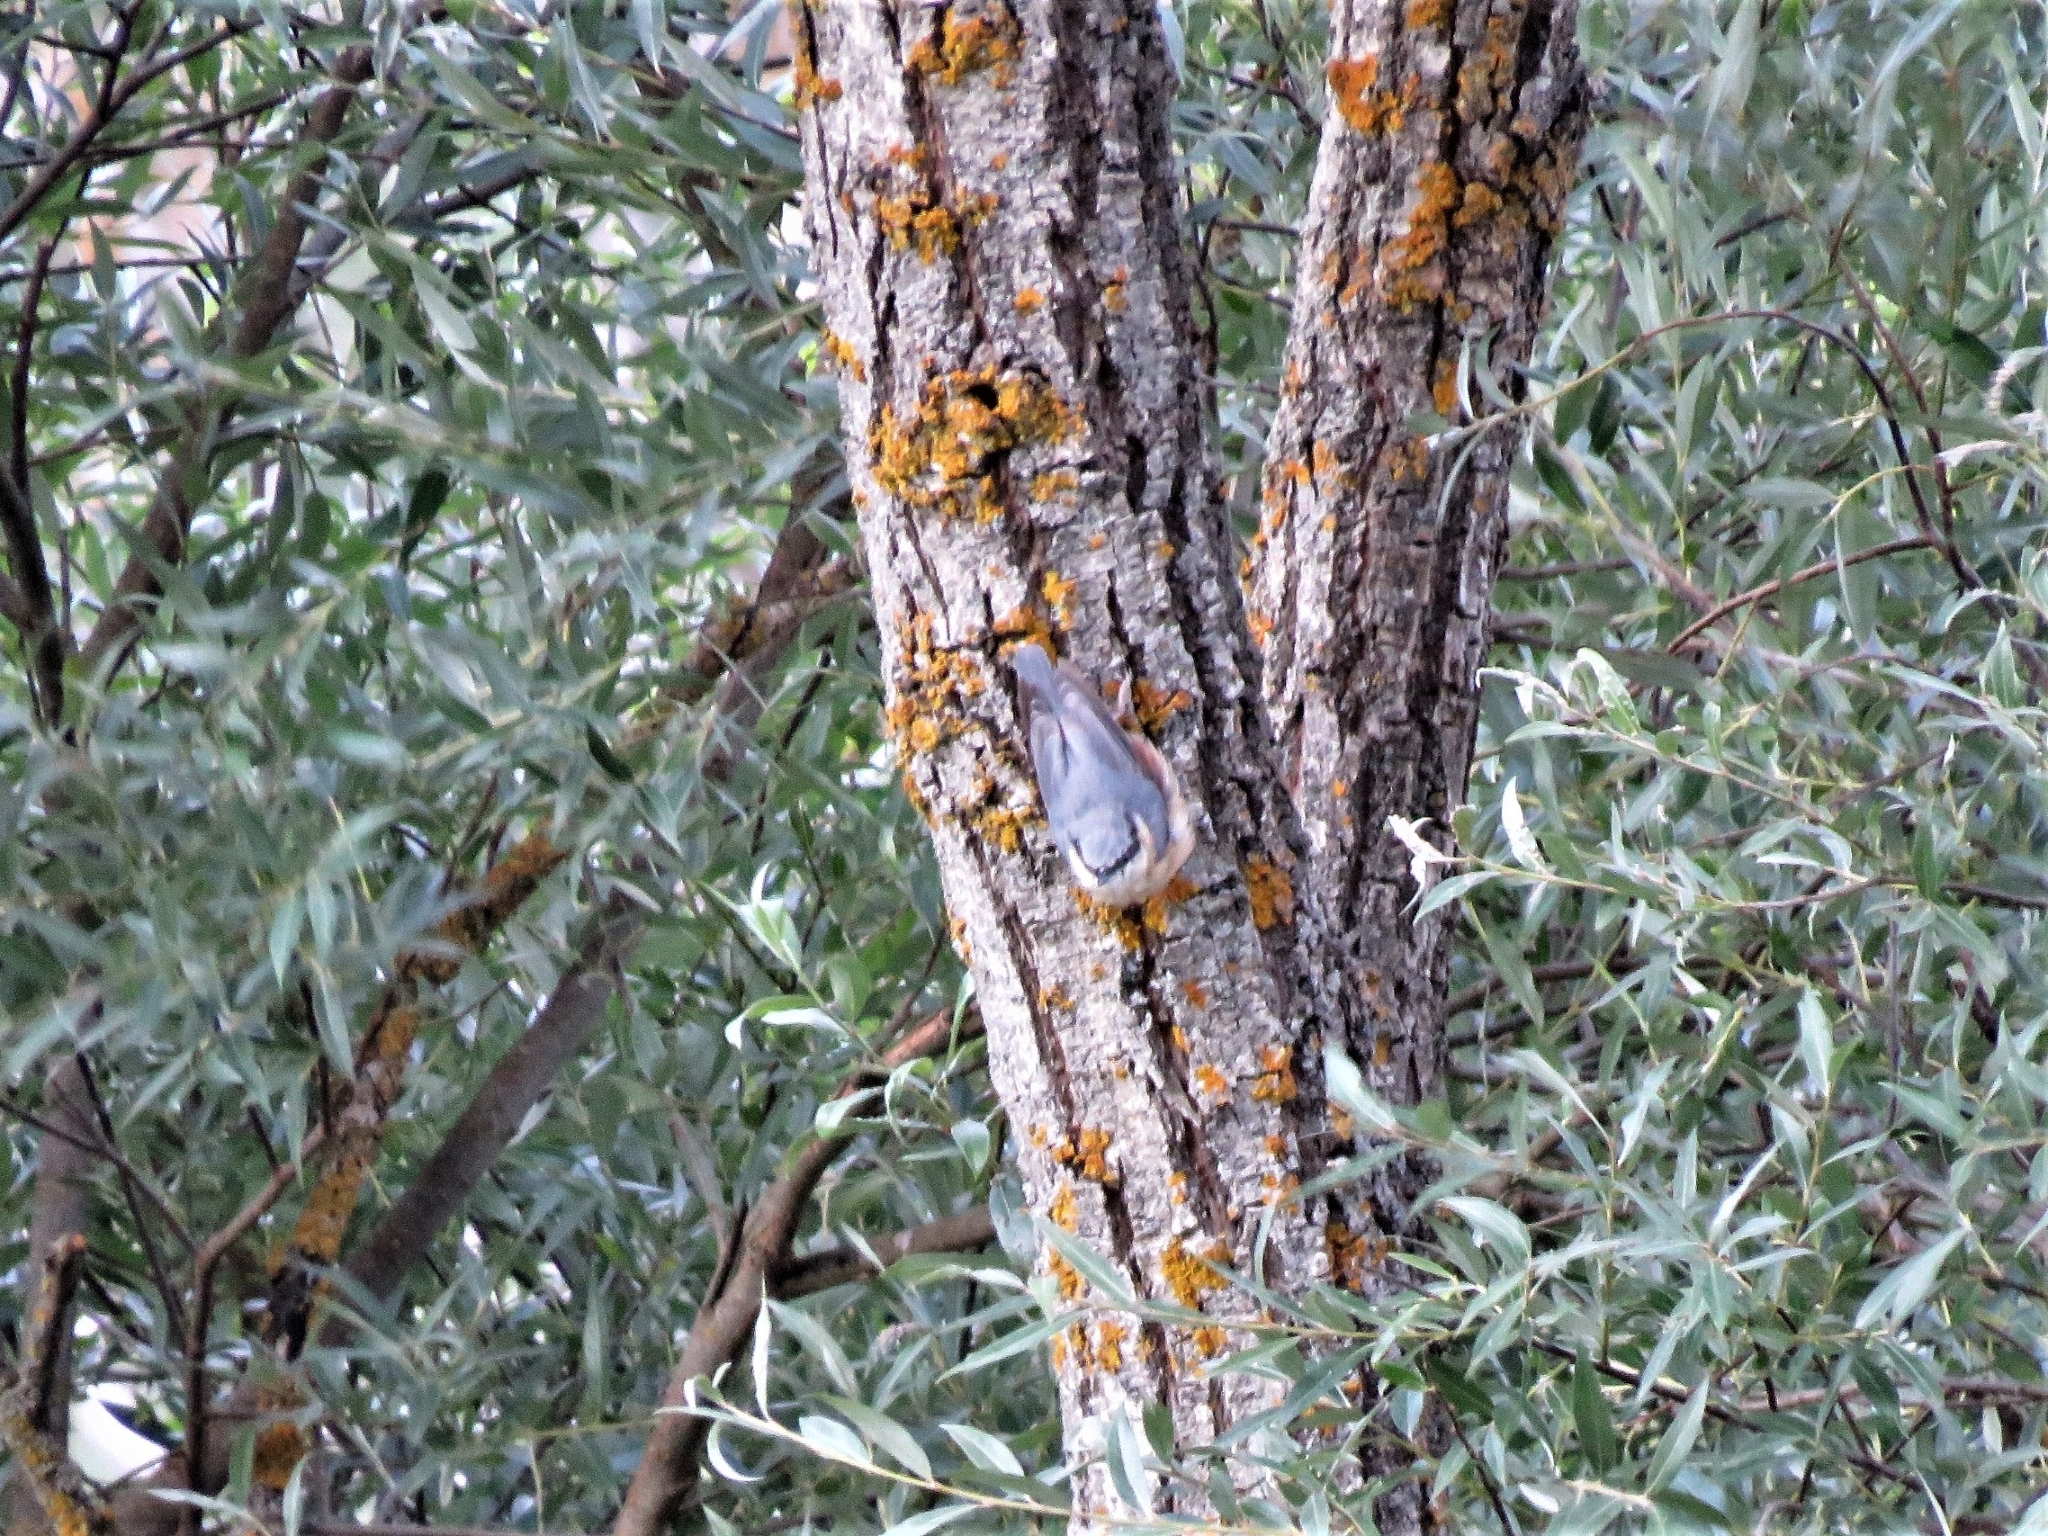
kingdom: Animalia
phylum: Chordata
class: Aves
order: Passeriformes
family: Sittidae
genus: Sitta
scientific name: Sitta europaea
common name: Eurasian nuthatch
